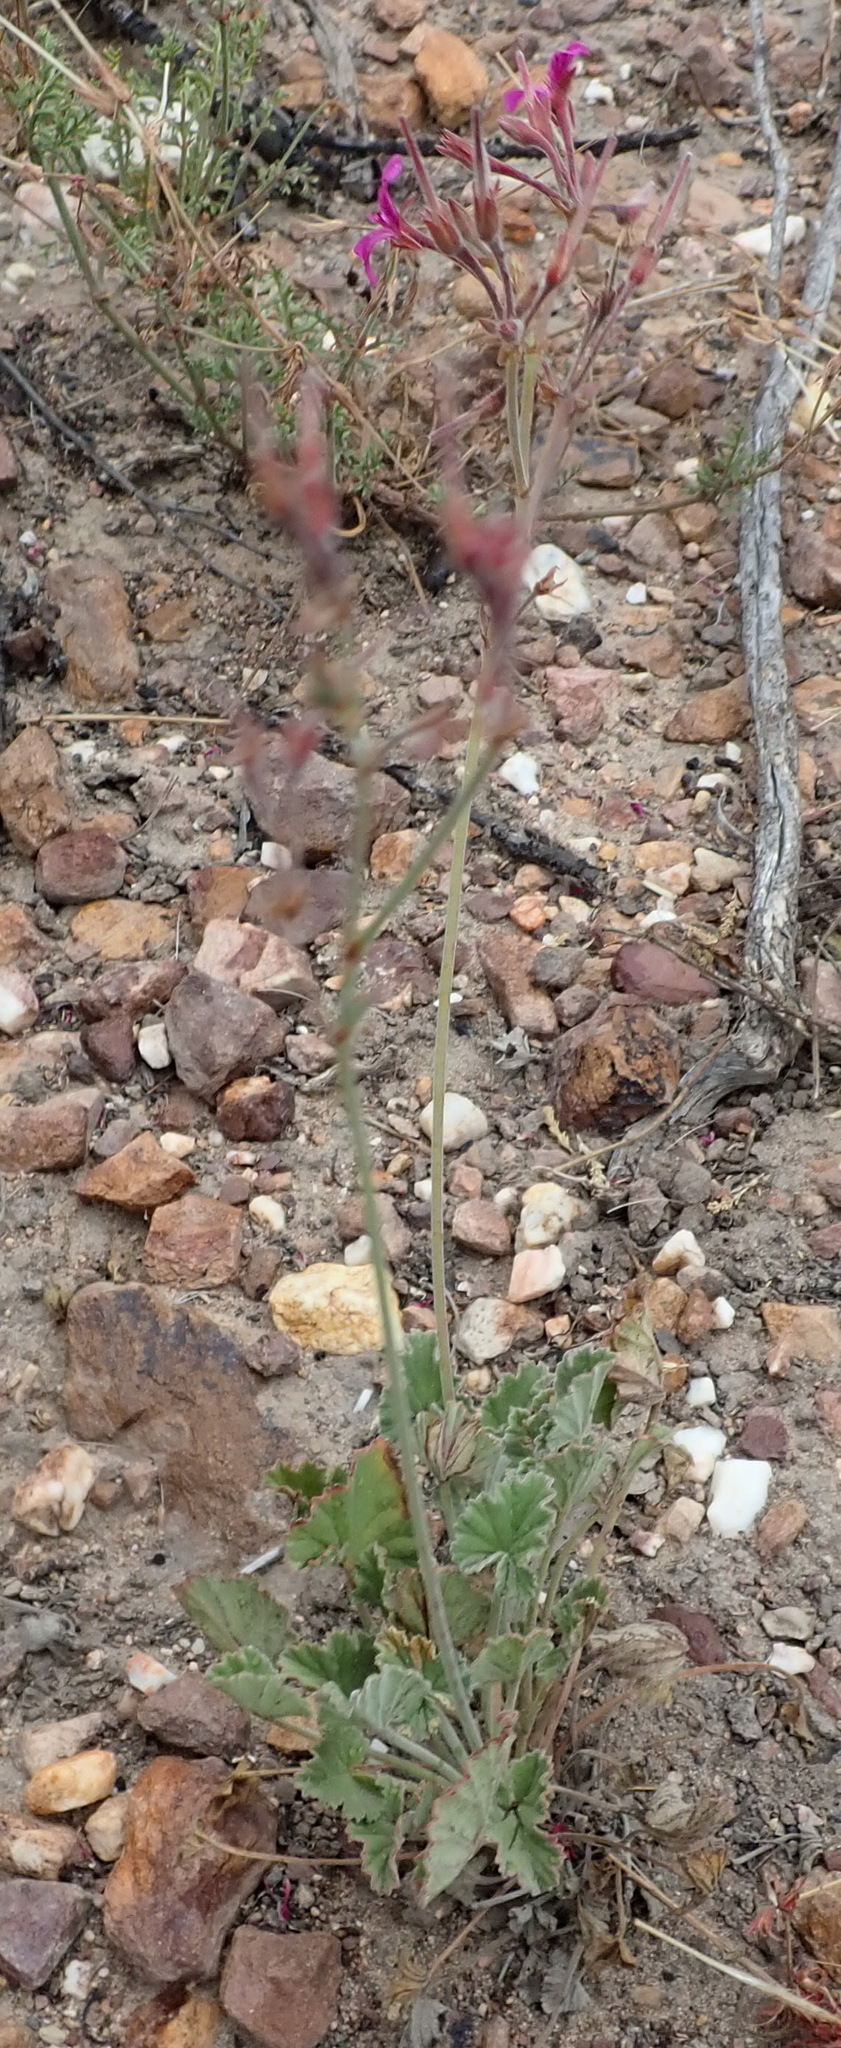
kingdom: Plantae
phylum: Tracheophyta
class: Magnoliopsida
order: Geraniales
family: Geraniaceae
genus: Pelargonium
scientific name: Pelargonium reniforme
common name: Kidney-leaf pelargonium
